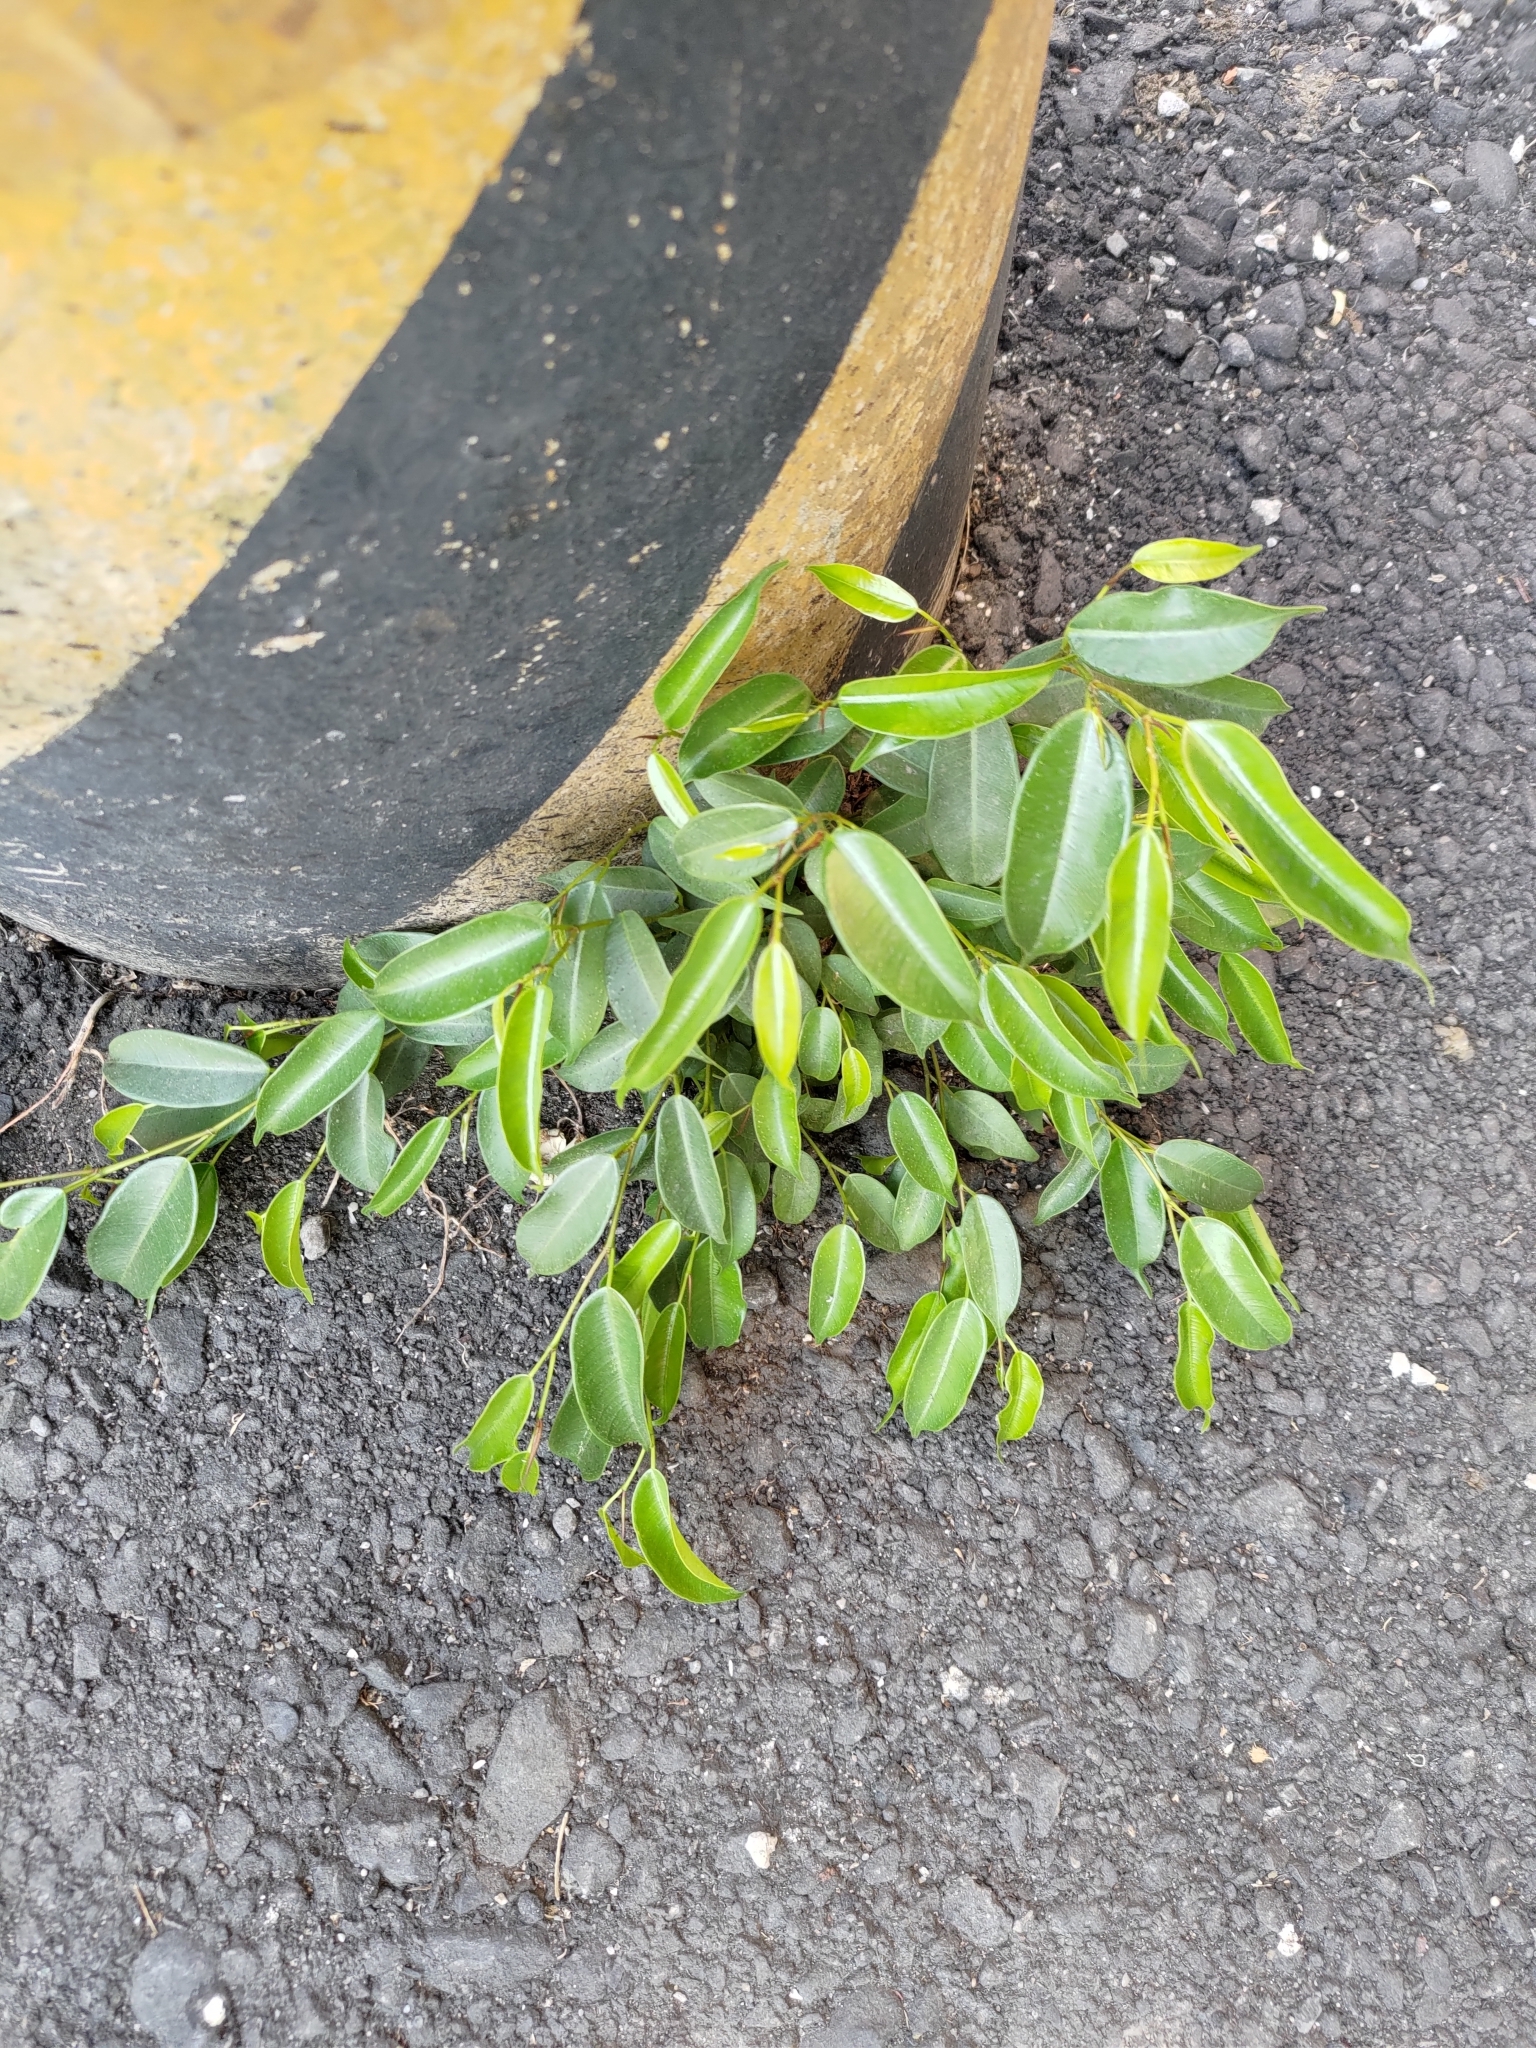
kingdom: Plantae
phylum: Tracheophyta
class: Magnoliopsida
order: Rosales
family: Moraceae
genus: Ficus
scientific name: Ficus benjamina
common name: Weeping fig
